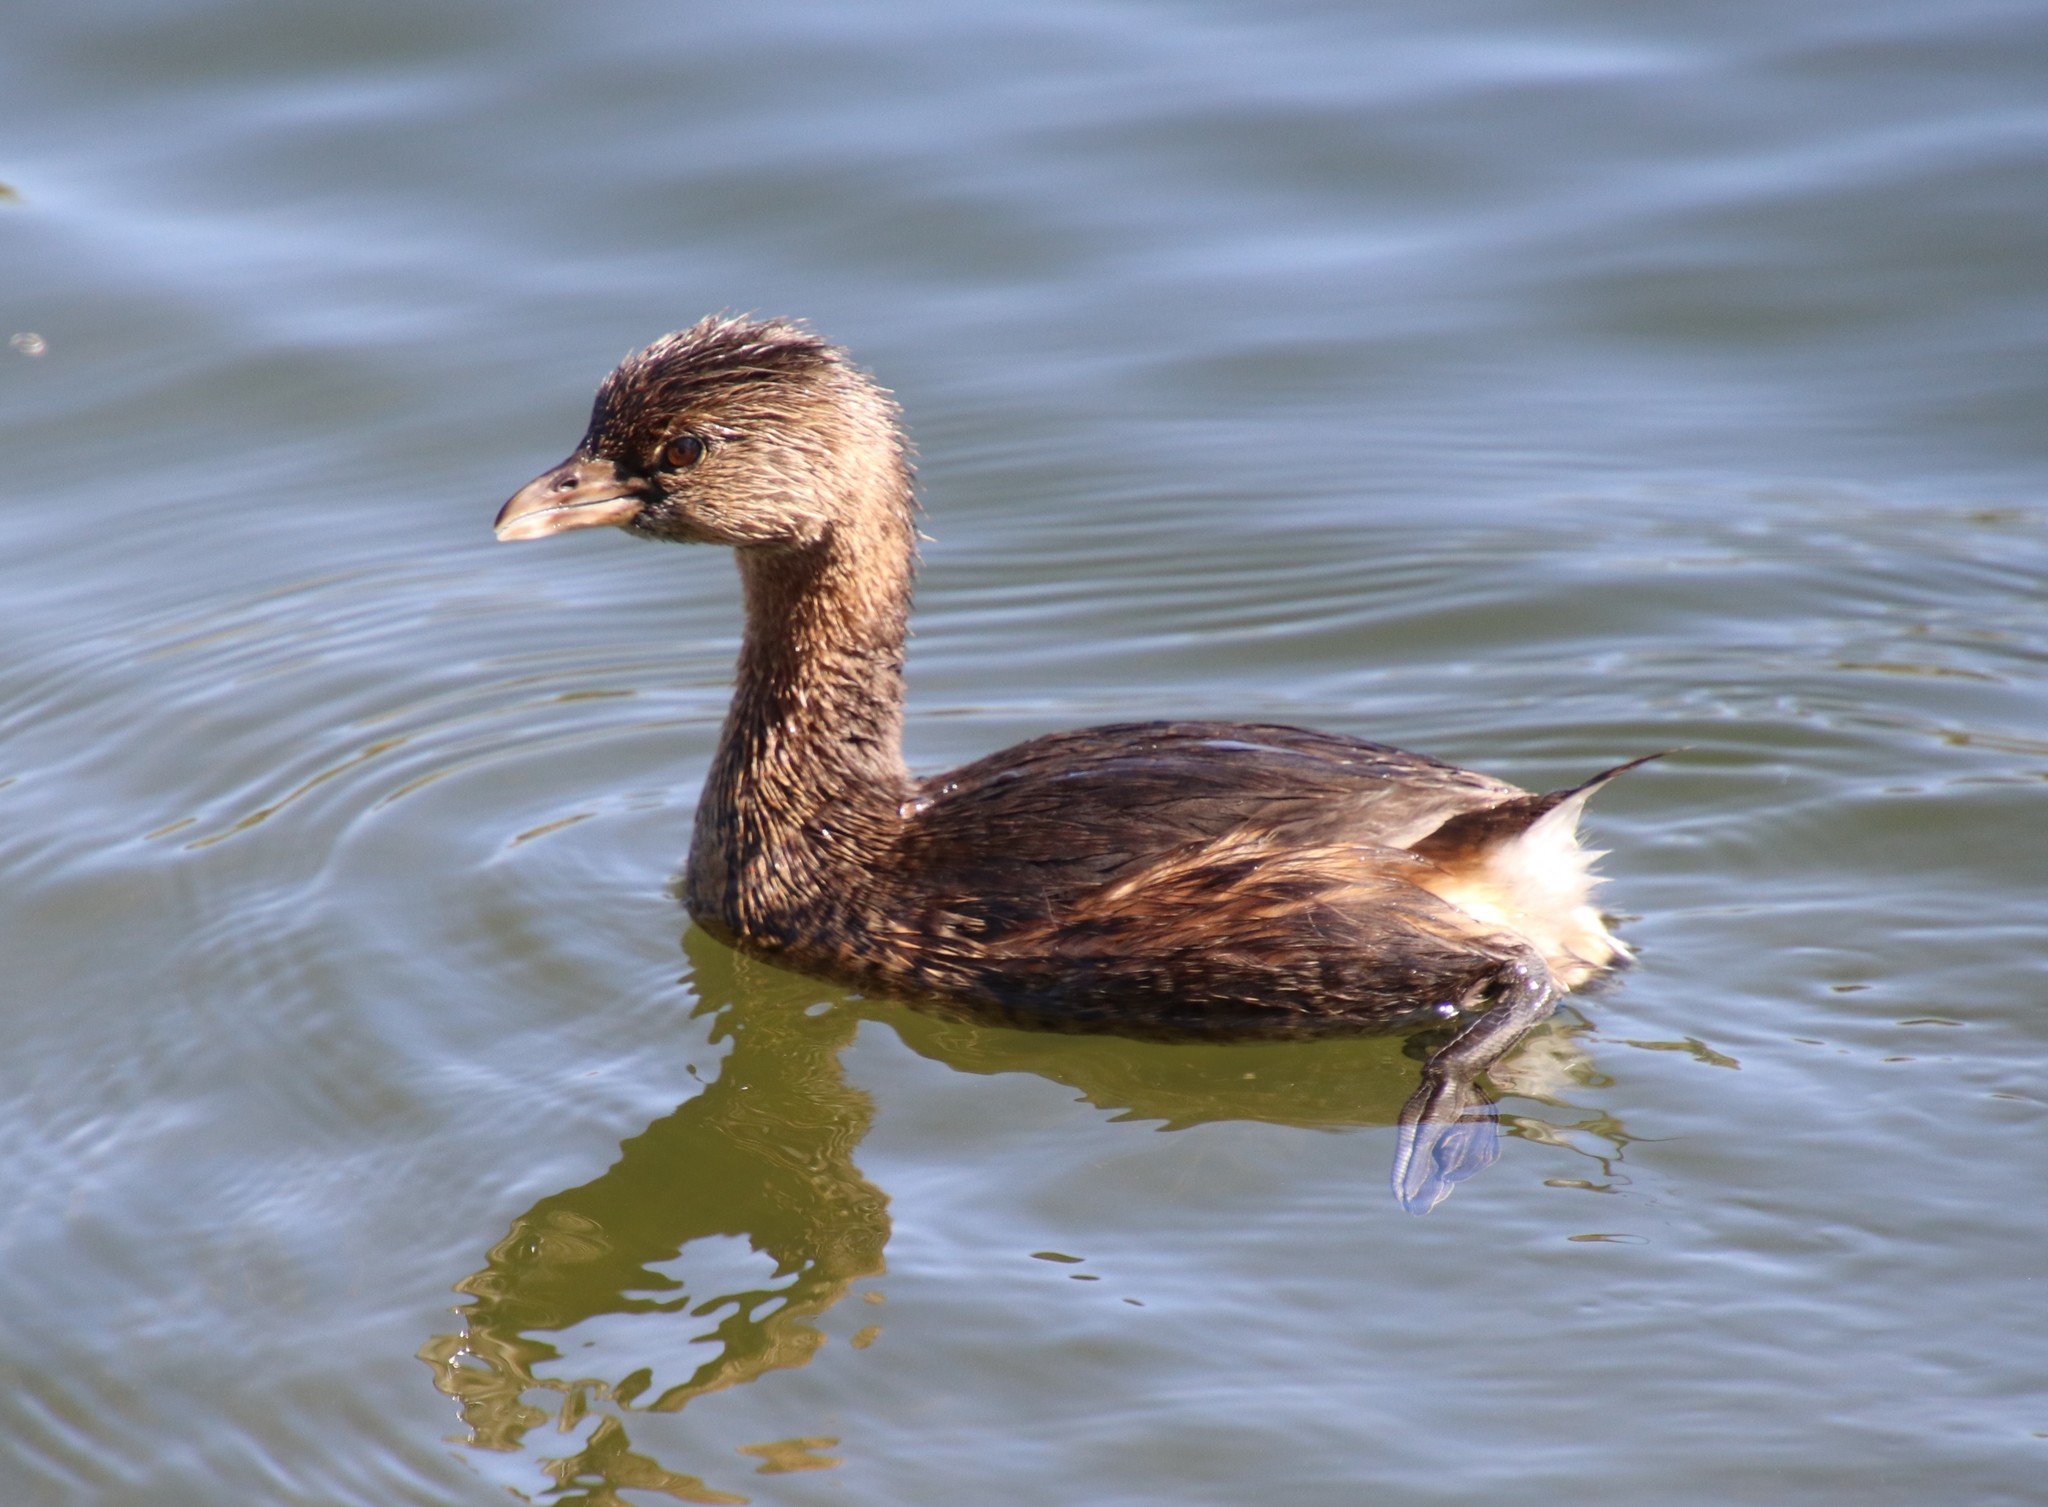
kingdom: Animalia
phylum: Chordata
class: Aves
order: Podicipediformes
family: Podicipedidae
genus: Podilymbus
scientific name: Podilymbus podiceps
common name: Pied-billed grebe
